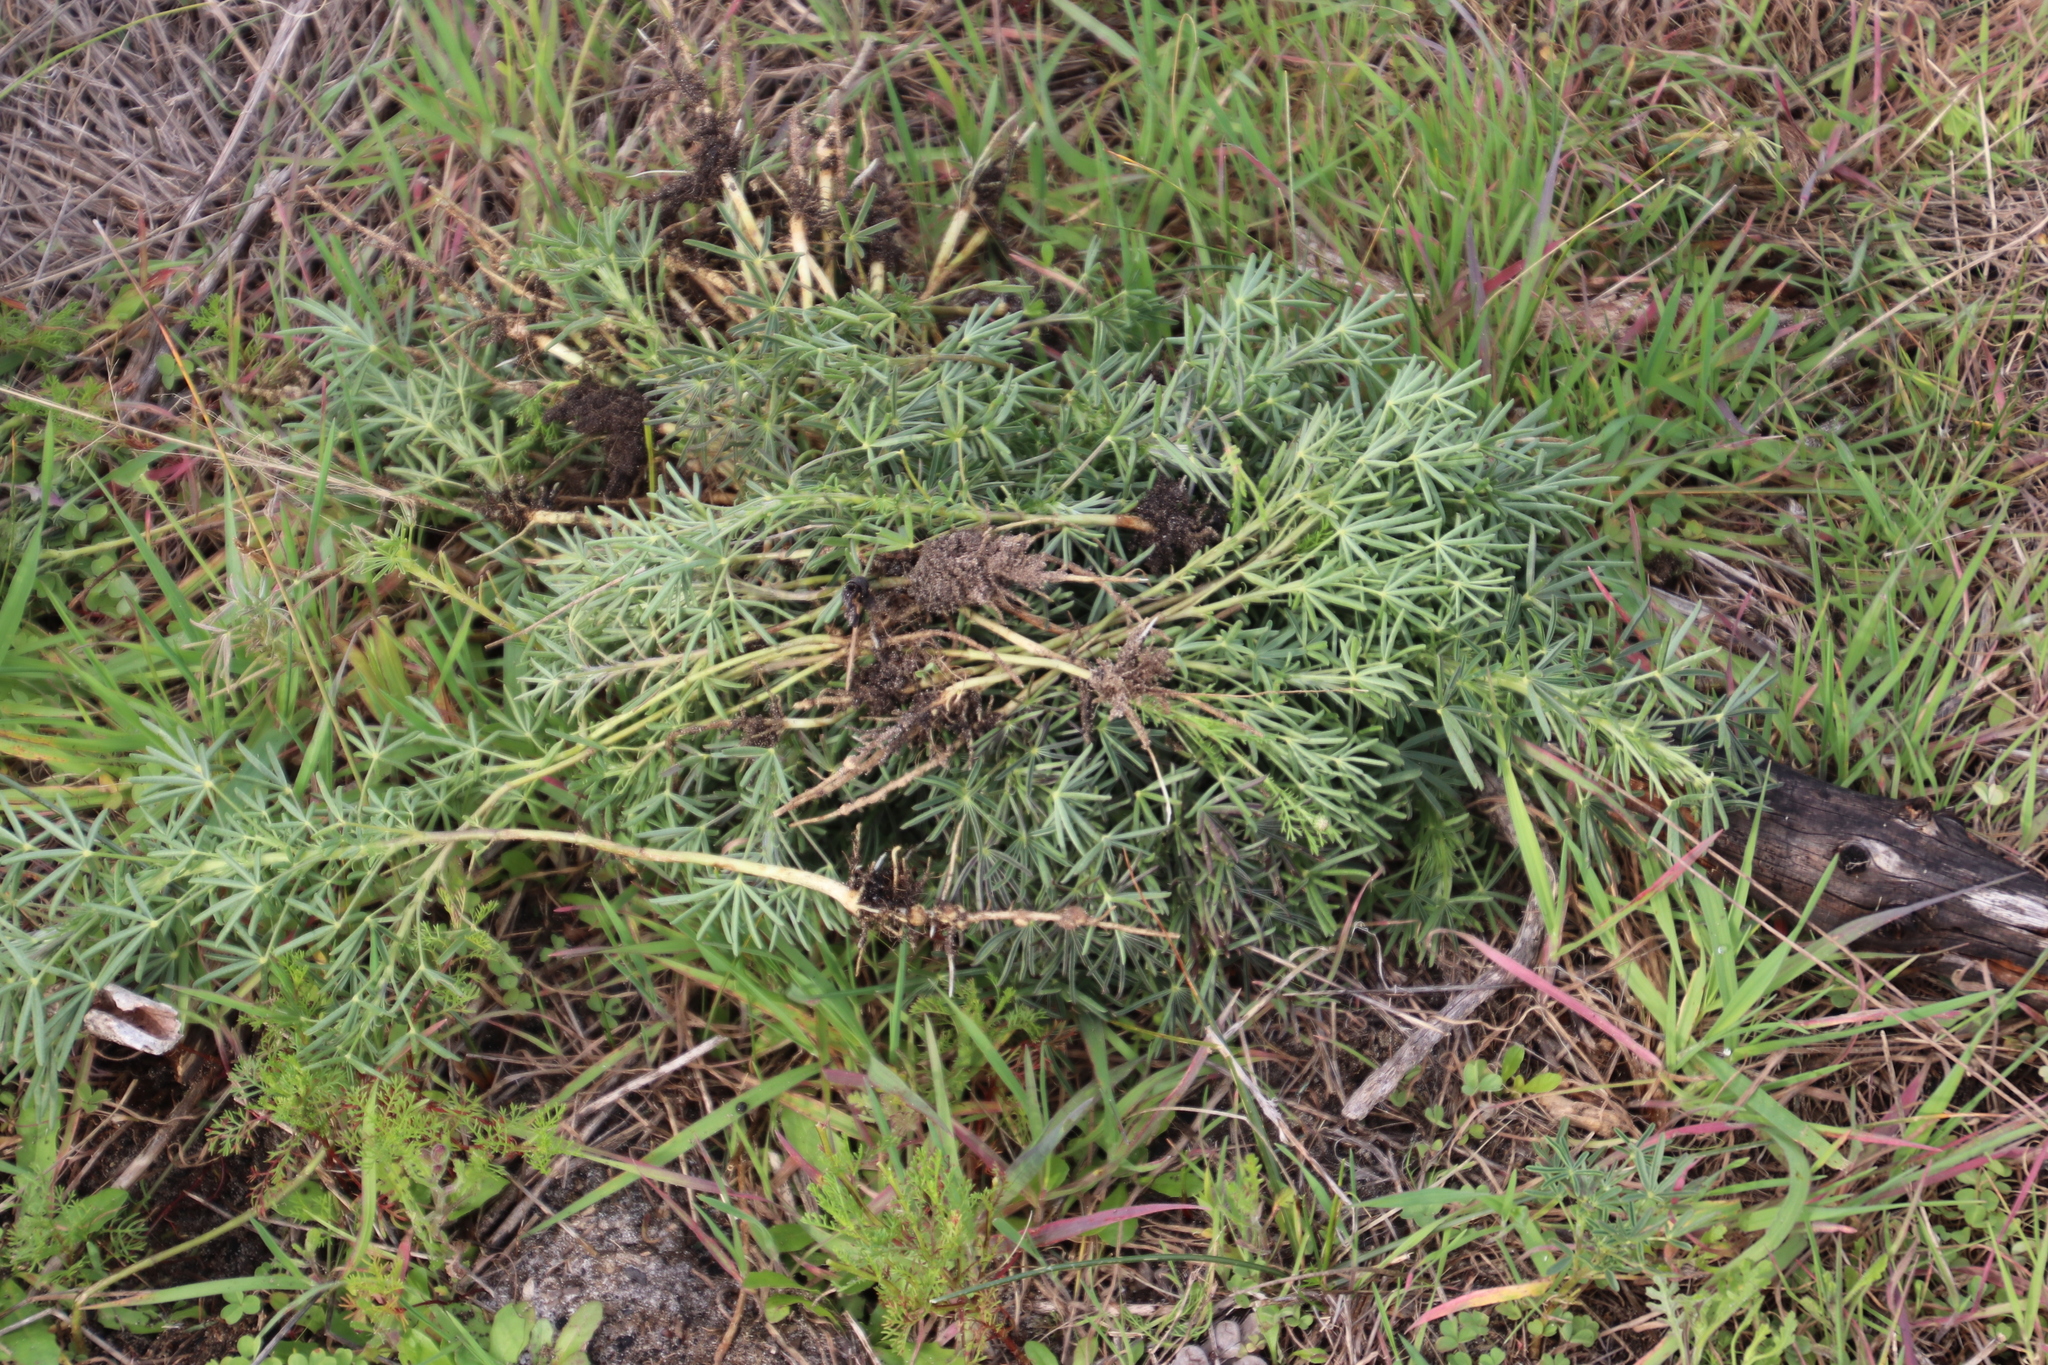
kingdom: Plantae
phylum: Tracheophyta
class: Magnoliopsida
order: Fabales
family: Fabaceae
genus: Lupinus
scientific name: Lupinus angustifolius
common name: Narrow-leaved lupin
